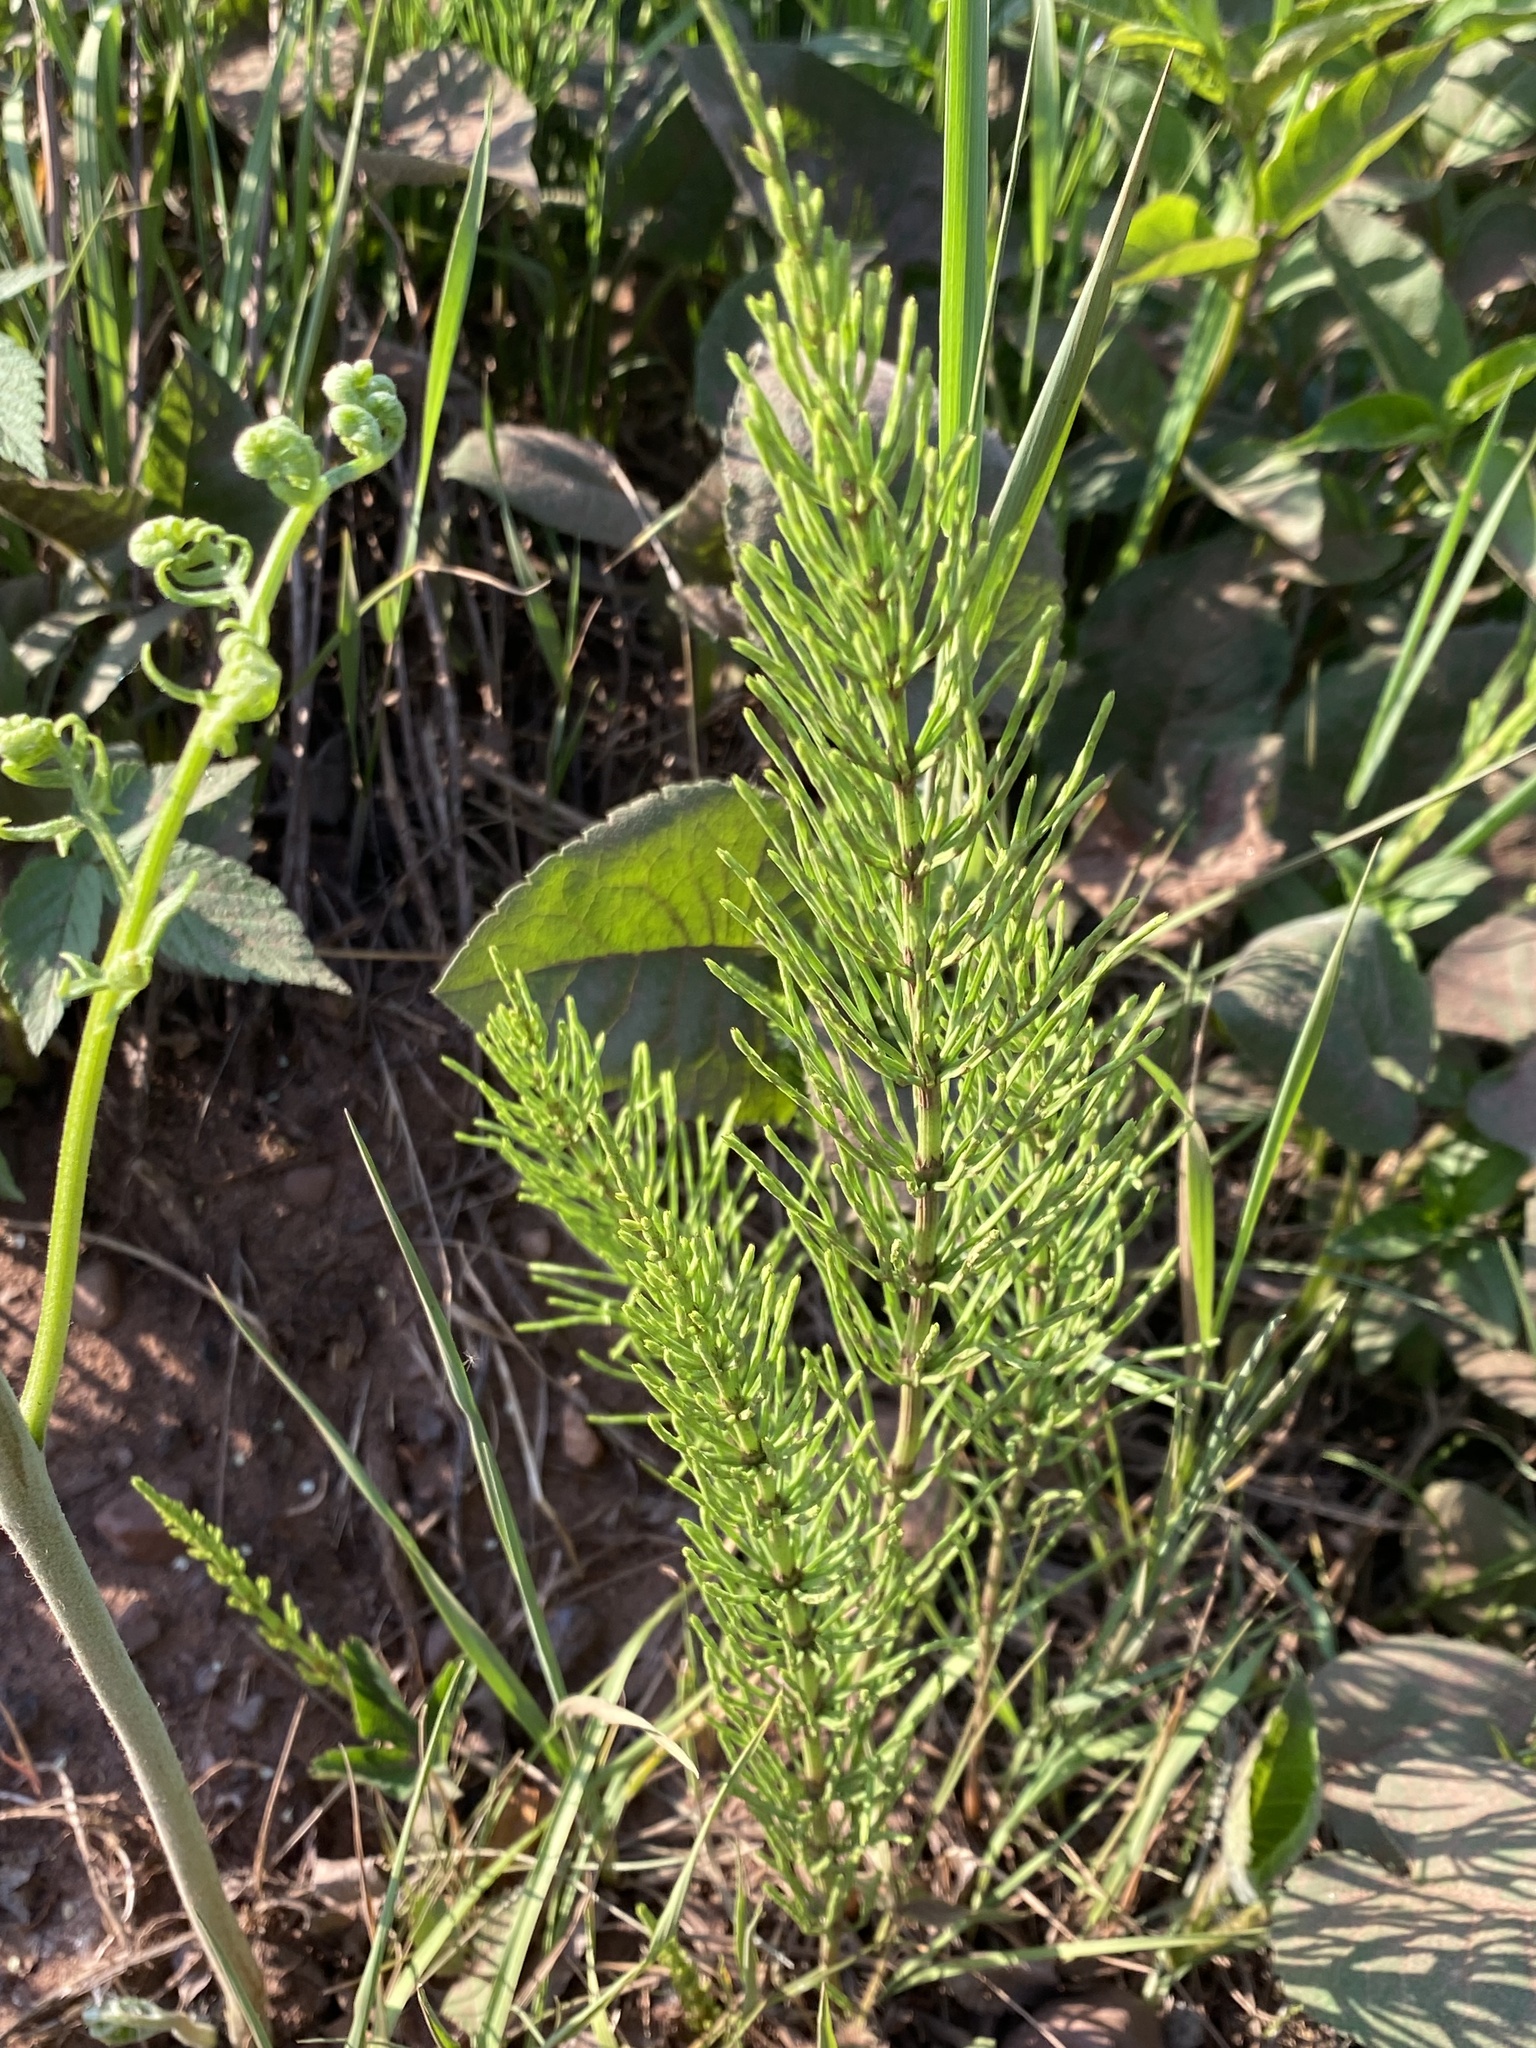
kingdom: Plantae
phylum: Tracheophyta
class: Polypodiopsida
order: Equisetales
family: Equisetaceae
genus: Equisetum
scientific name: Equisetum arvense
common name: Field horsetail
